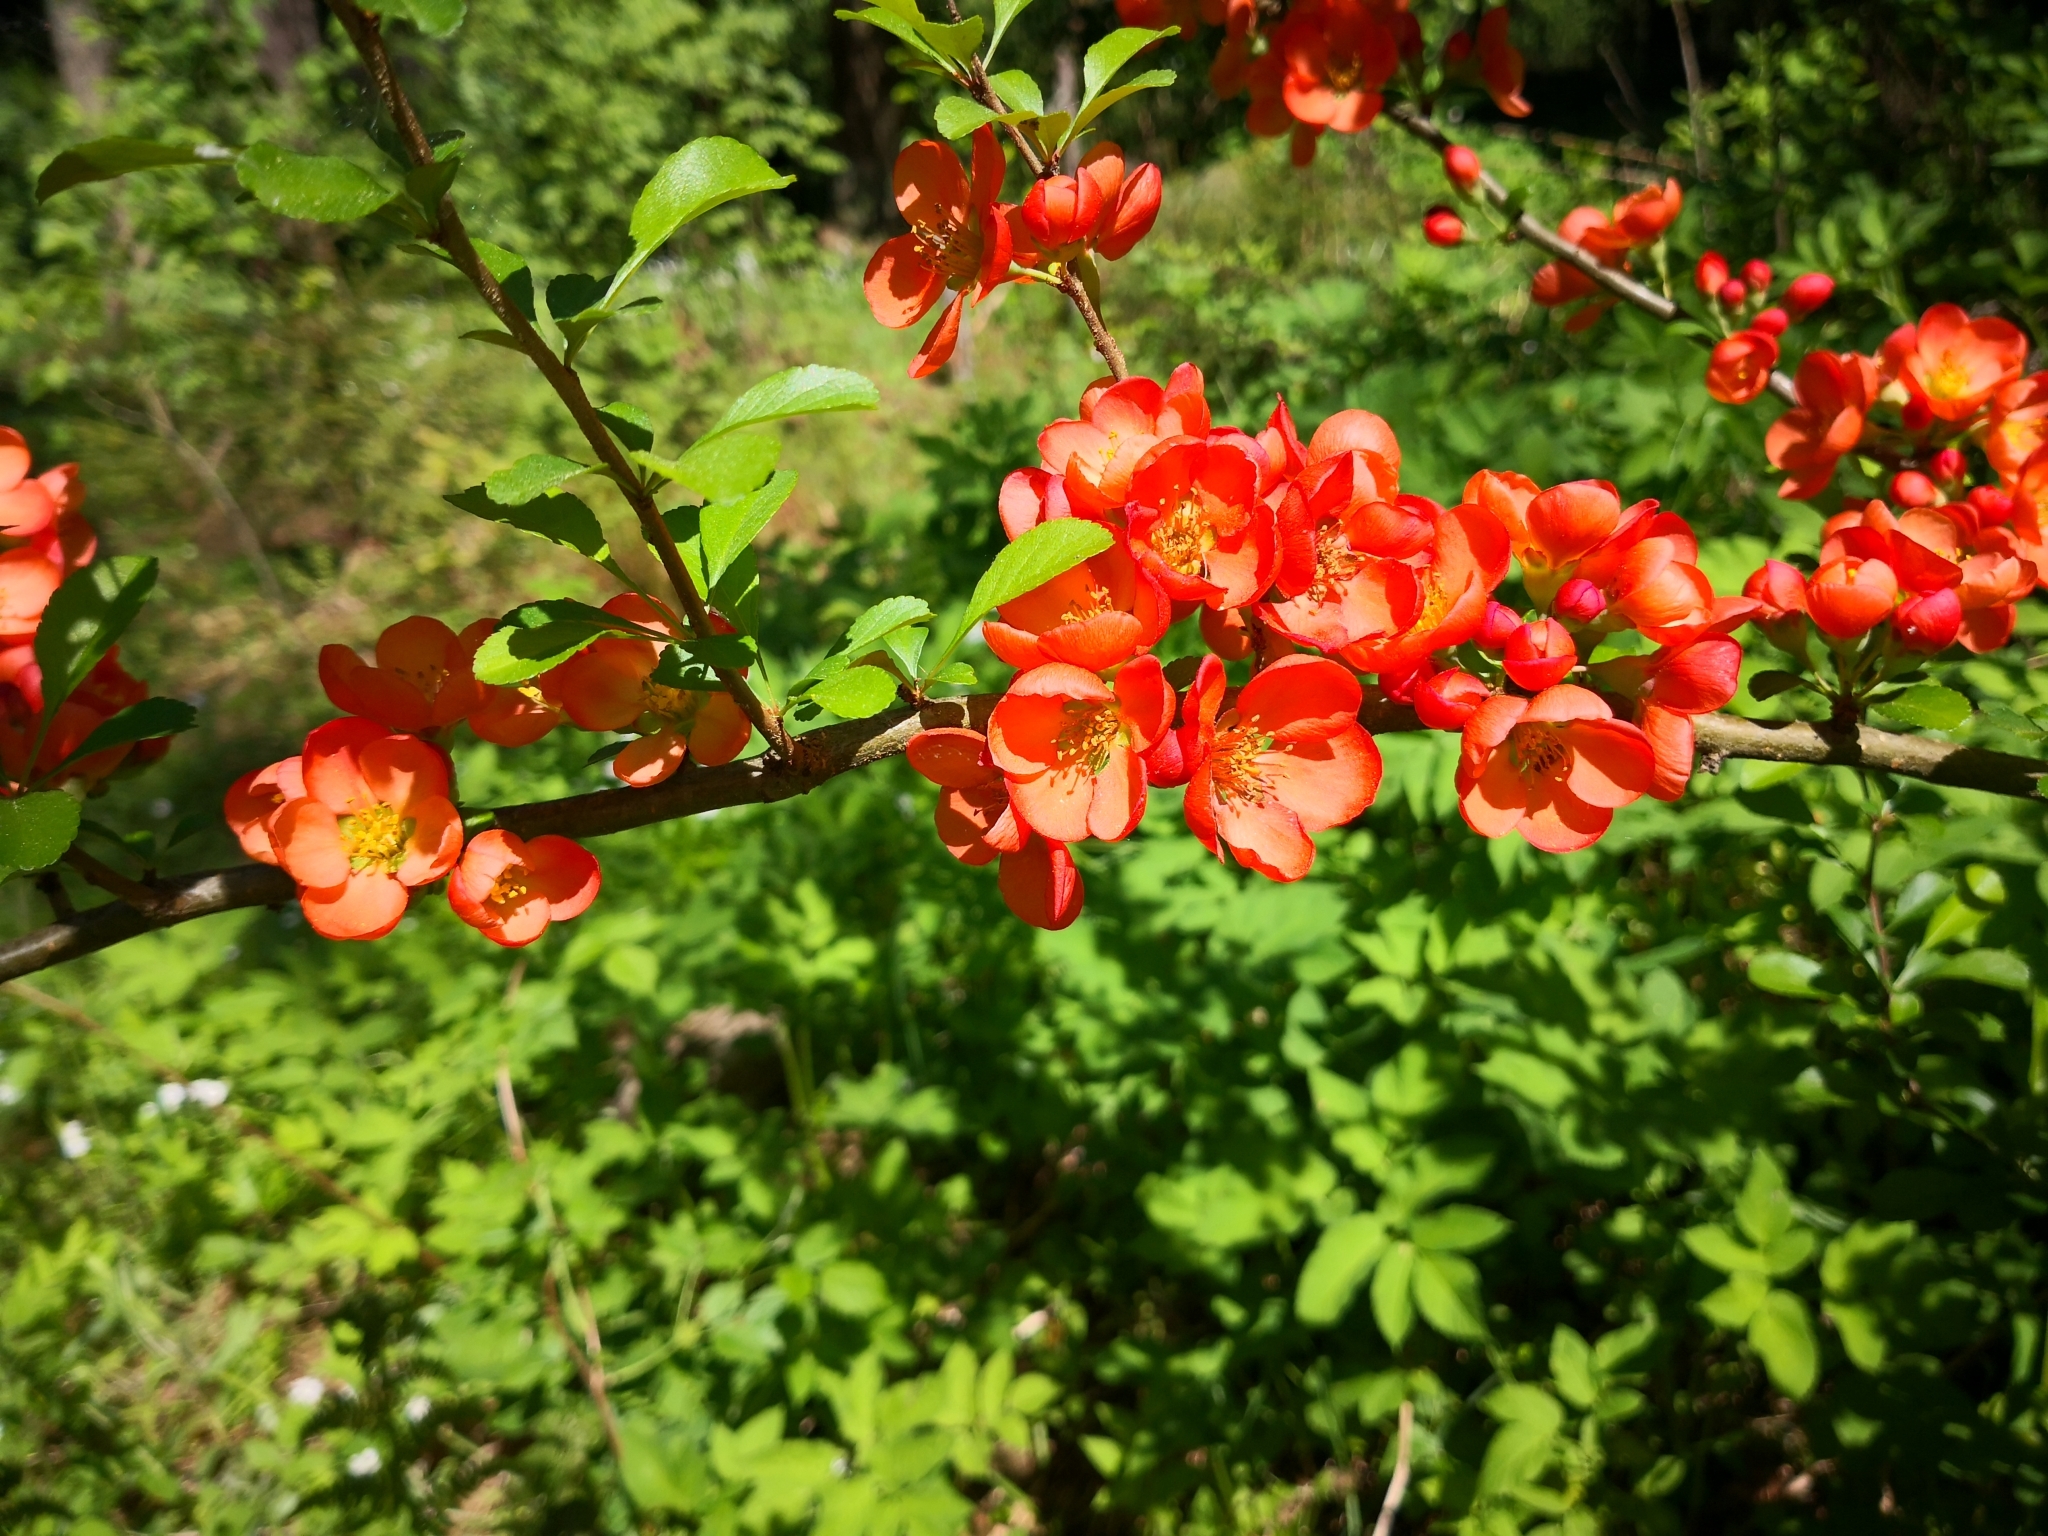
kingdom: Plantae
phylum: Tracheophyta
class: Magnoliopsida
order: Rosales
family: Rosaceae
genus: Chaenomeles
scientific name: Chaenomeles japonica
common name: Japanese quince
